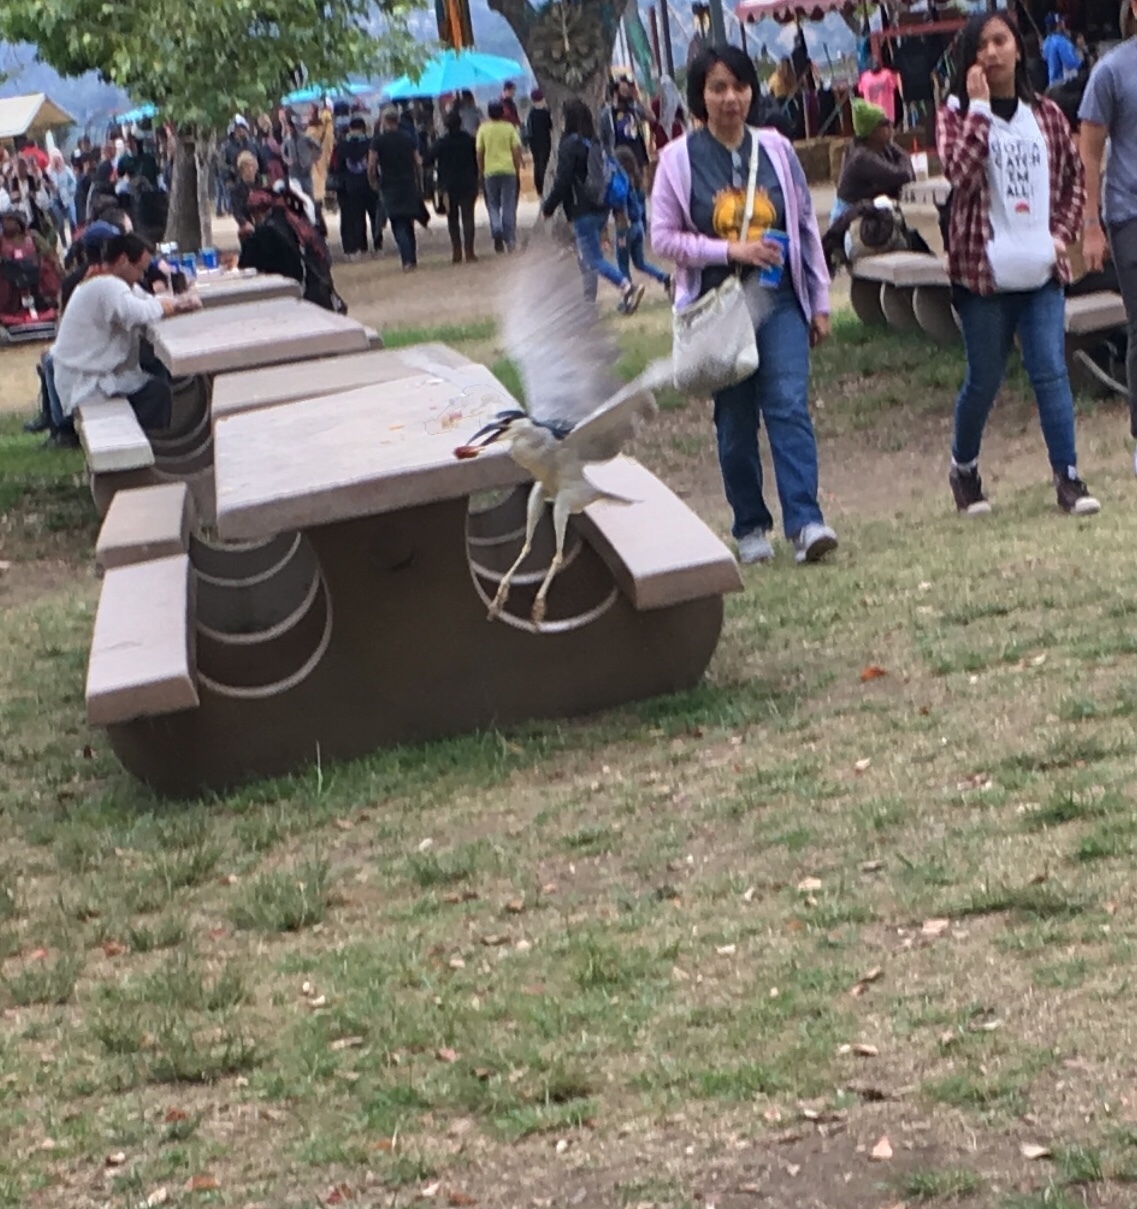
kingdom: Animalia
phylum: Chordata
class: Aves
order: Pelecaniformes
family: Ardeidae
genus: Nycticorax
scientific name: Nycticorax nycticorax
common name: Black-crowned night heron
